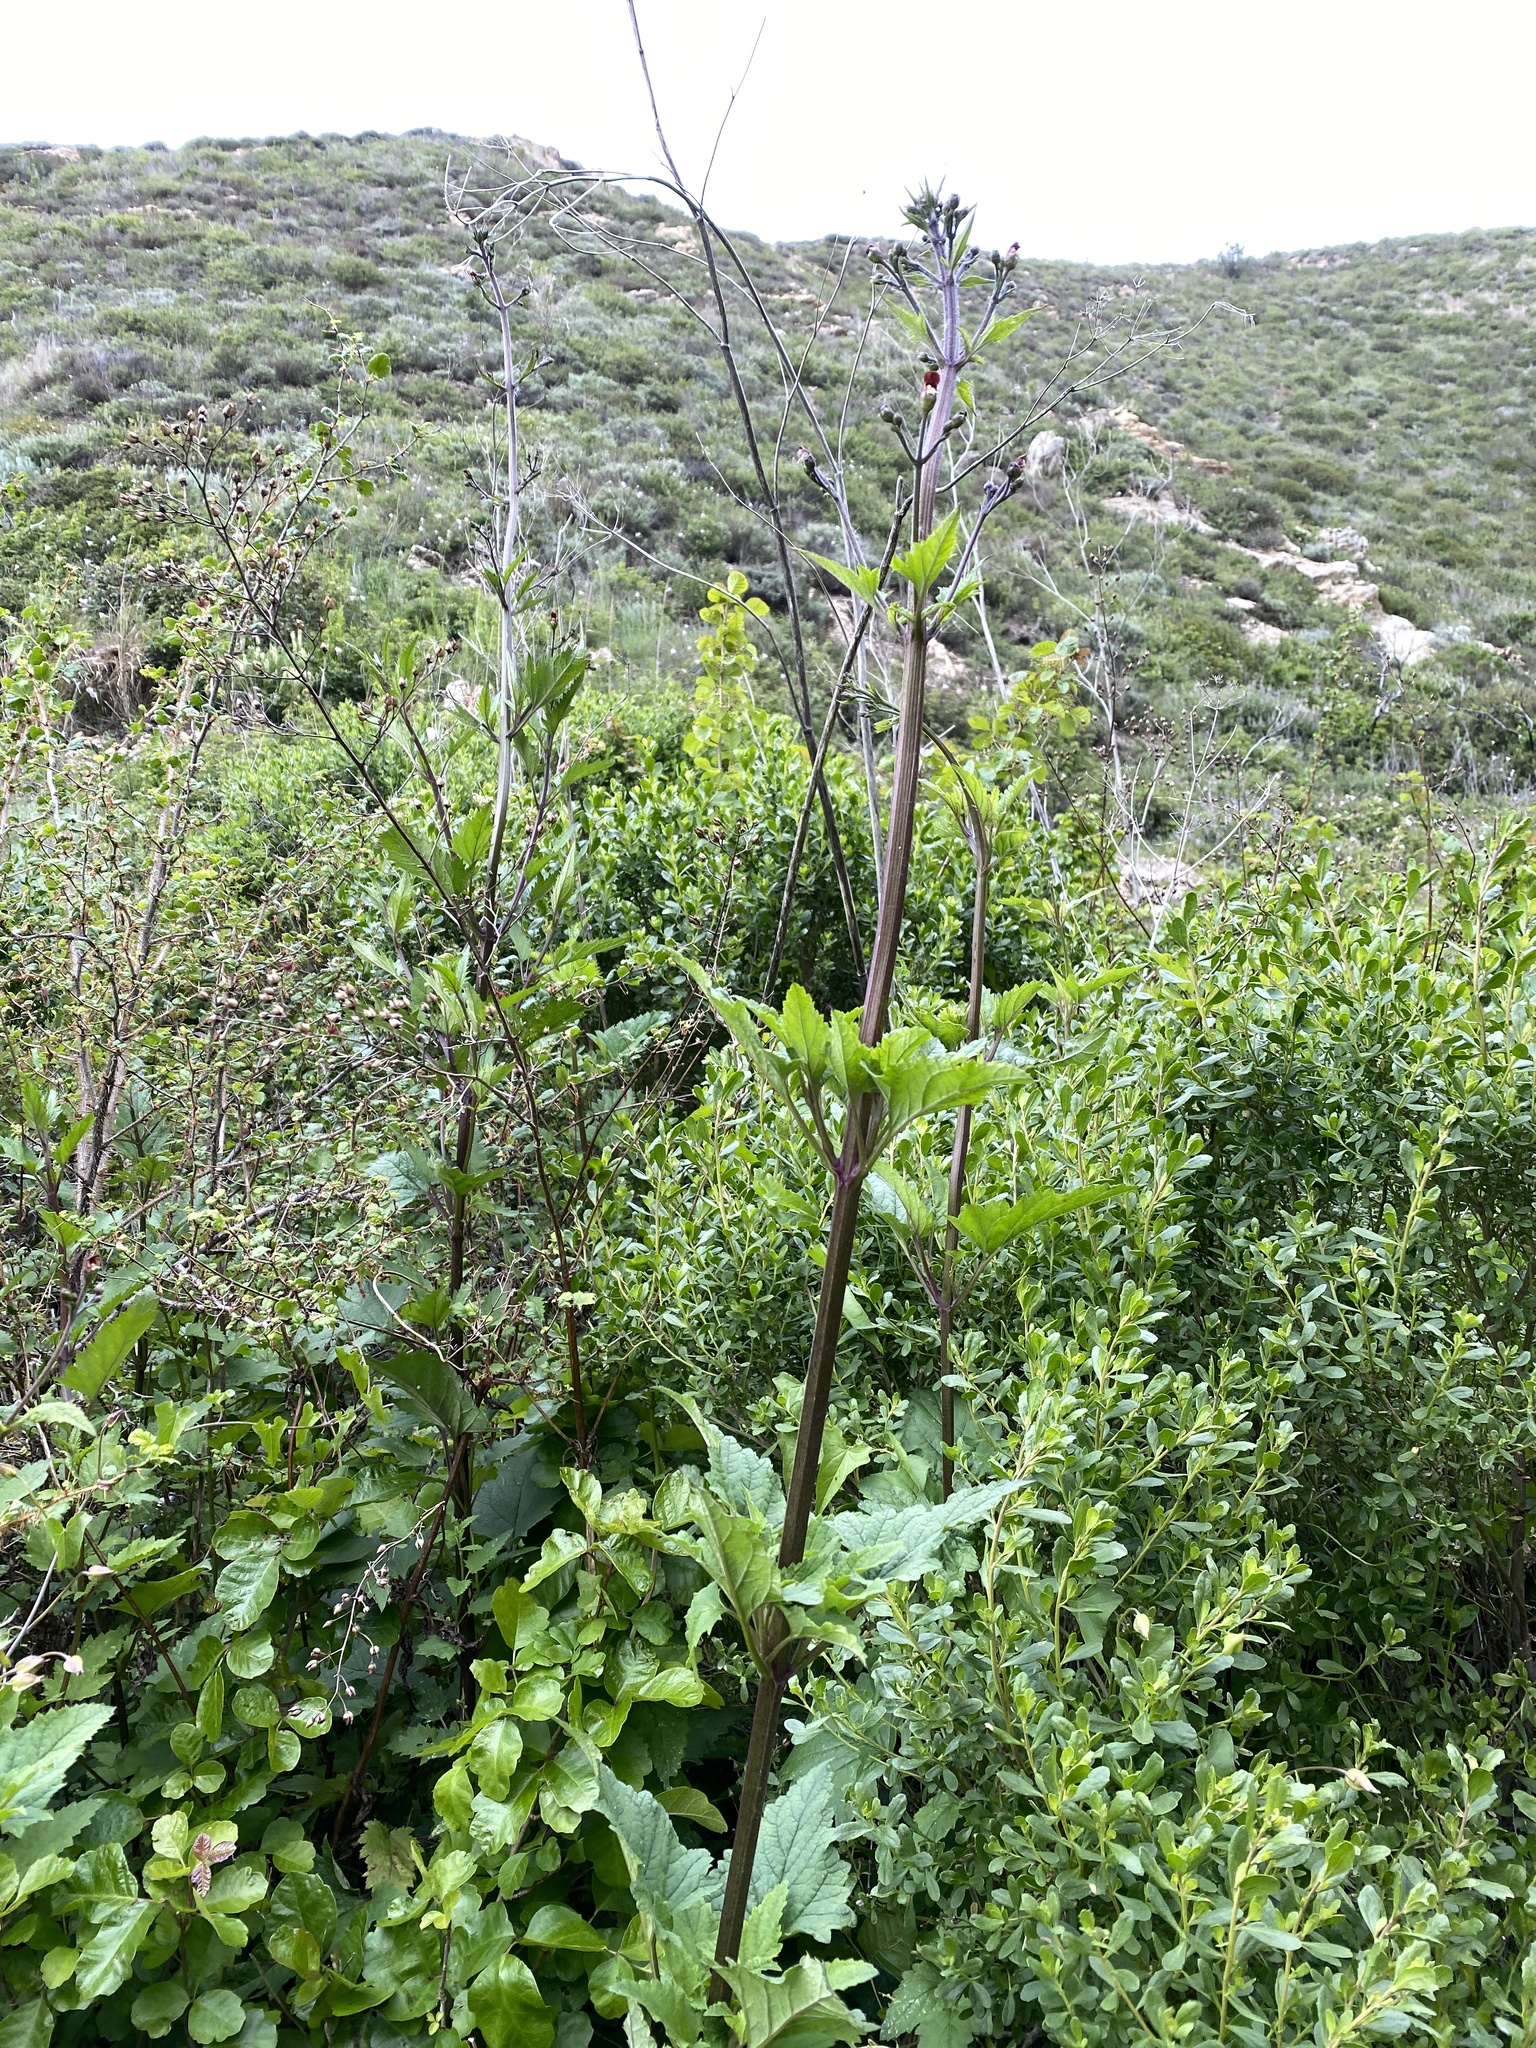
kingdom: Plantae
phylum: Tracheophyta
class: Magnoliopsida
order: Lamiales
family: Scrophulariaceae
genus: Scrophularia
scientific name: Scrophularia californica
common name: California figwort
